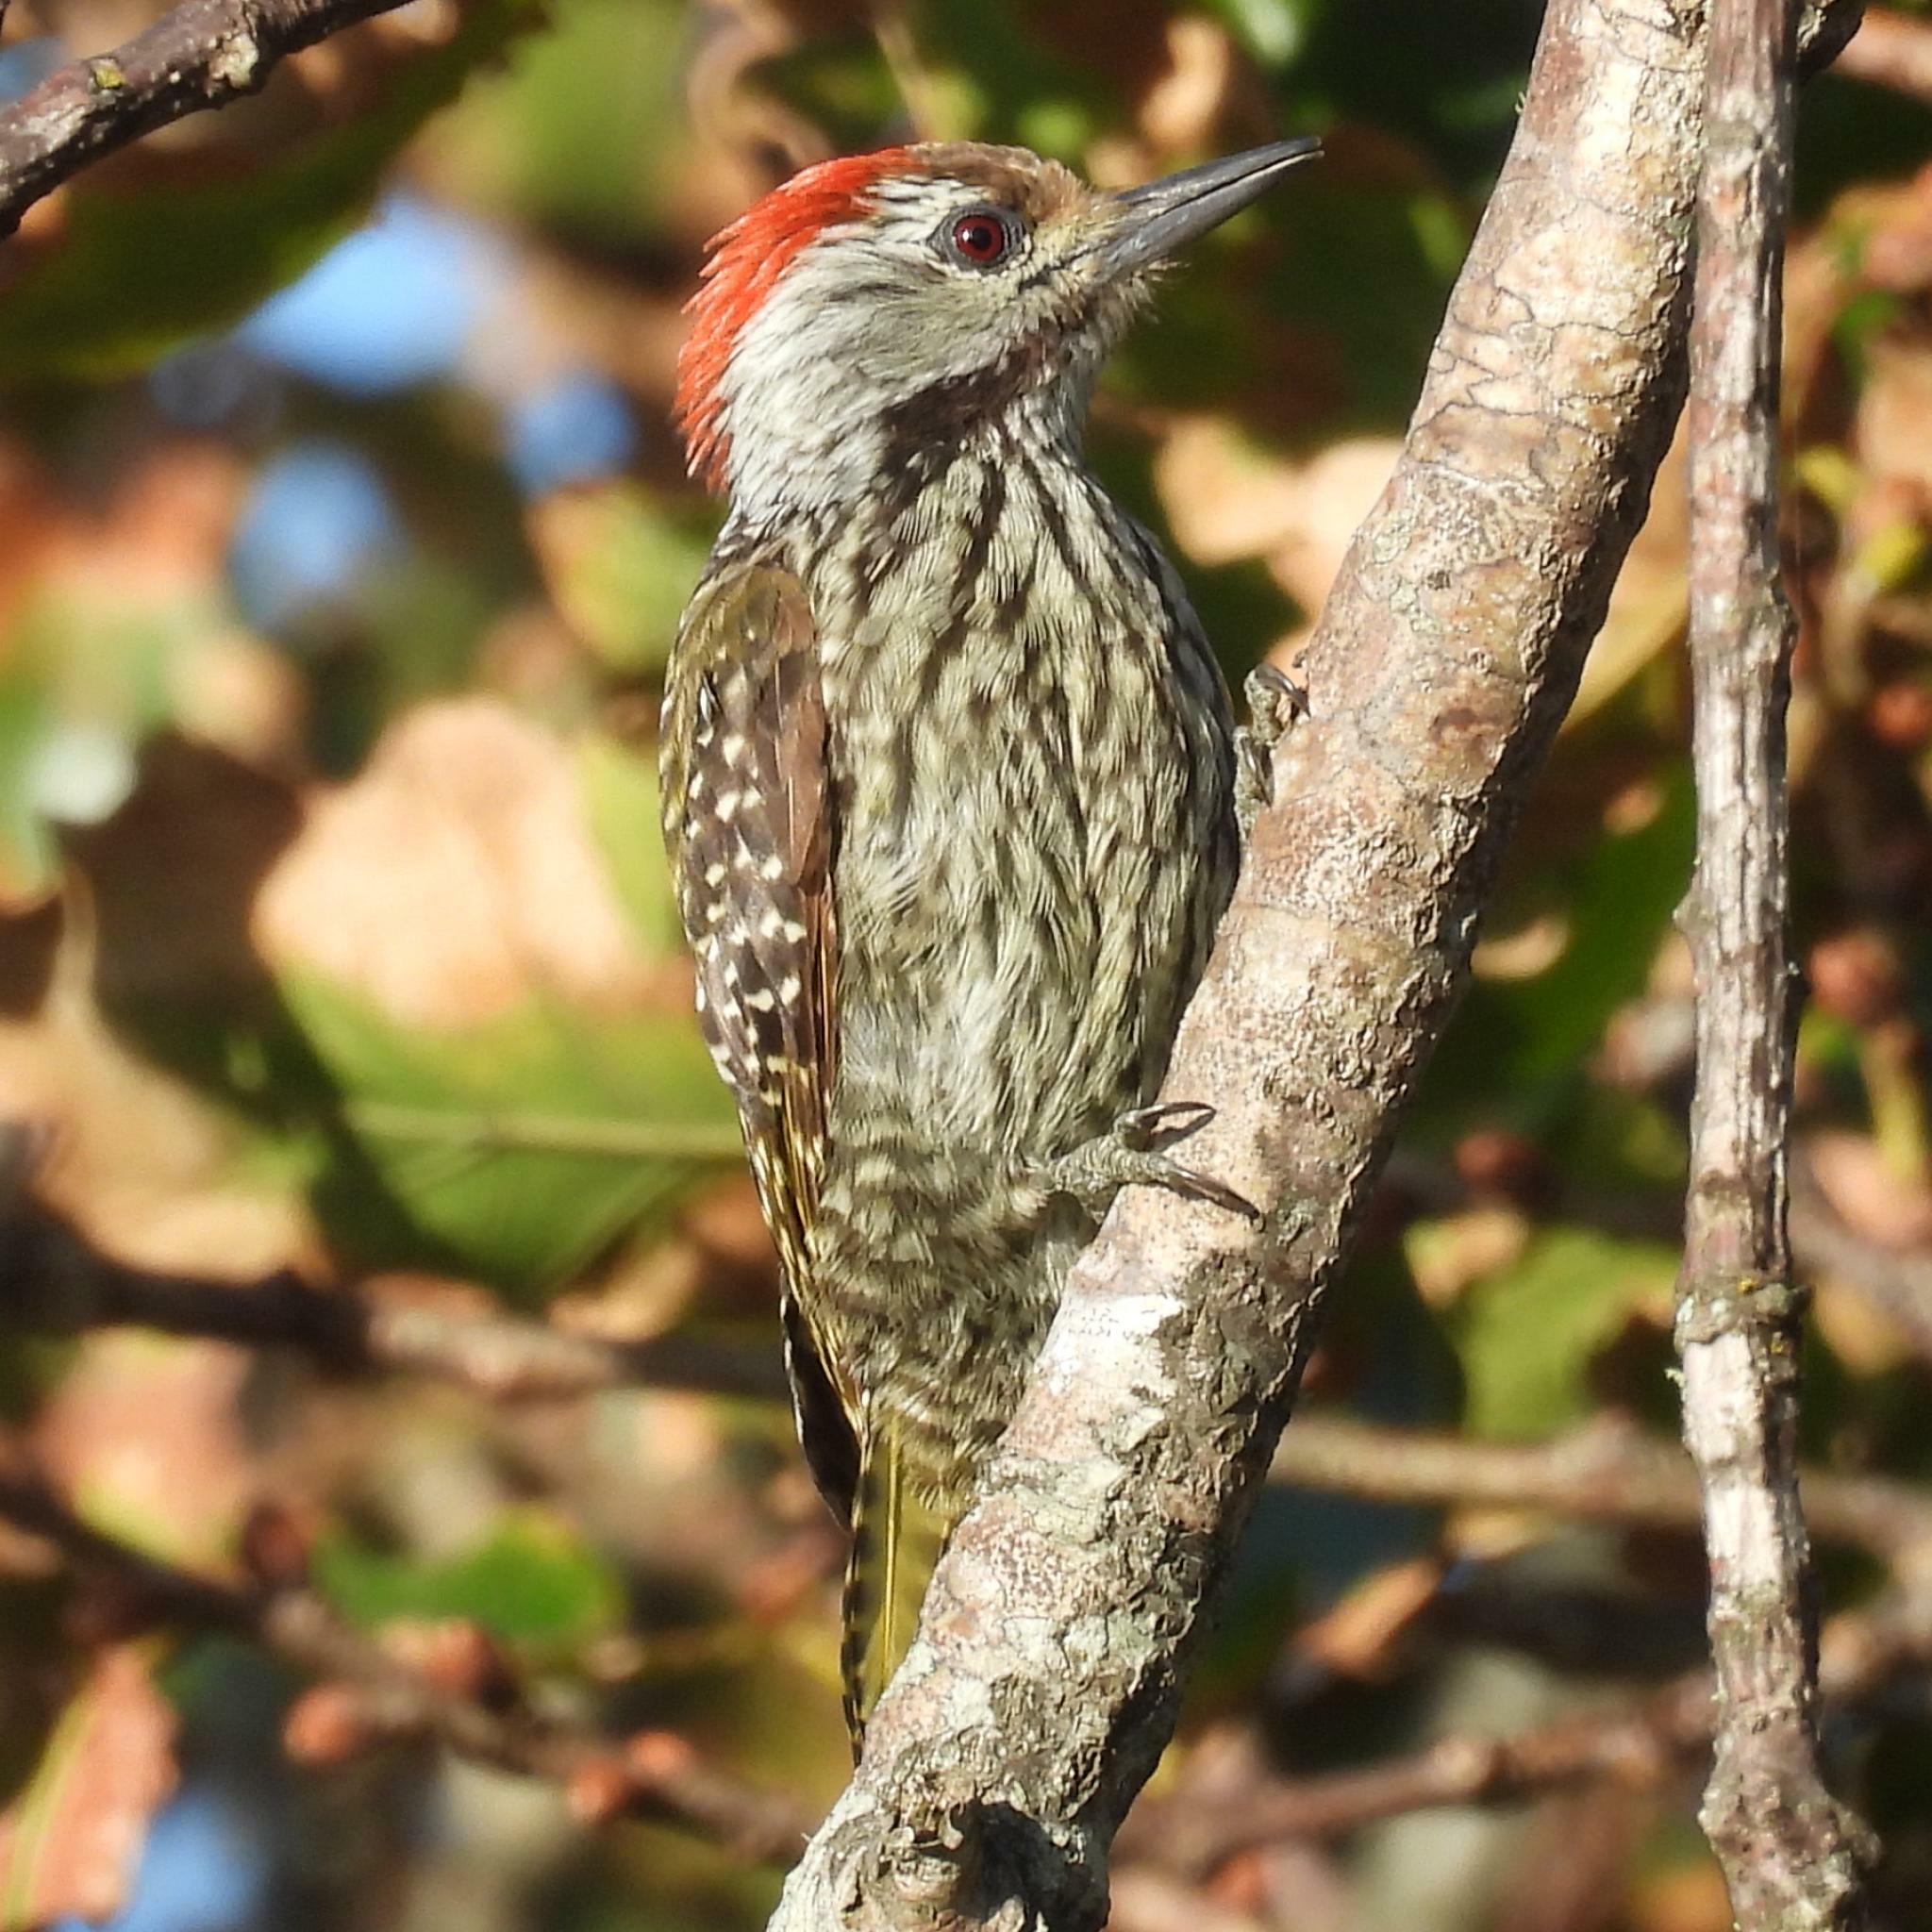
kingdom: Animalia
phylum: Chordata
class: Aves
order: Piciformes
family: Picidae
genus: Dendropicos
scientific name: Dendropicos fuscescens
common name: Cardinal woodpecker
